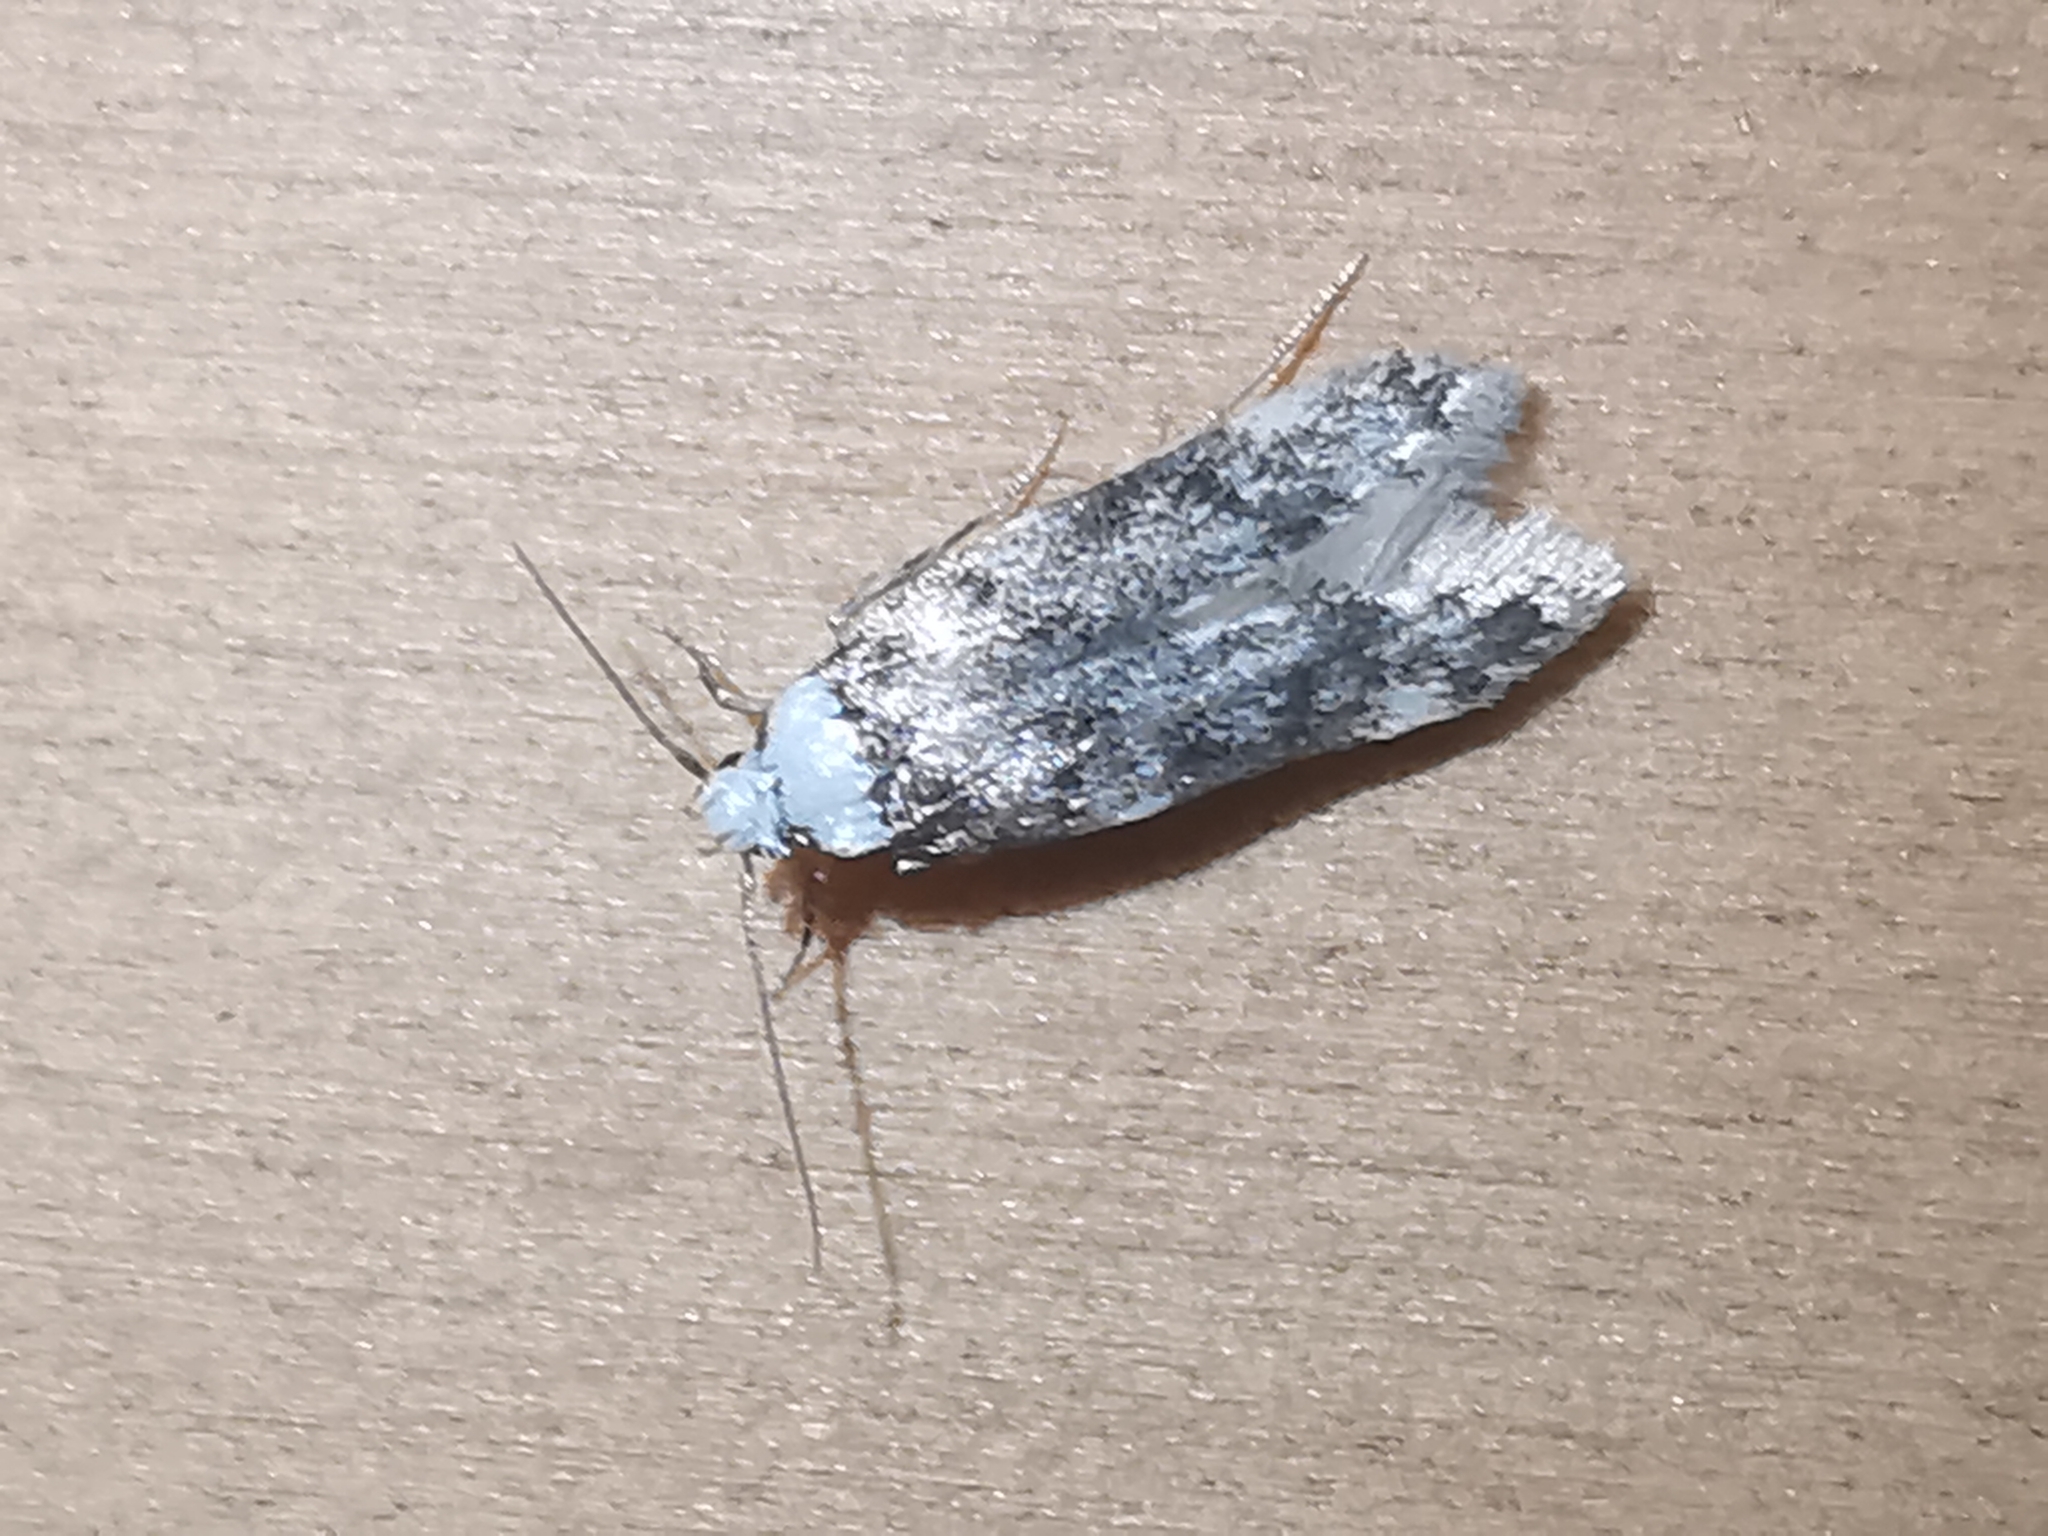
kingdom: Animalia
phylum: Arthropoda
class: Insecta
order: Lepidoptera
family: Oecophoridae
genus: Endrosis
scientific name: Endrosis sarcitrella
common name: White-shouldered house moth
